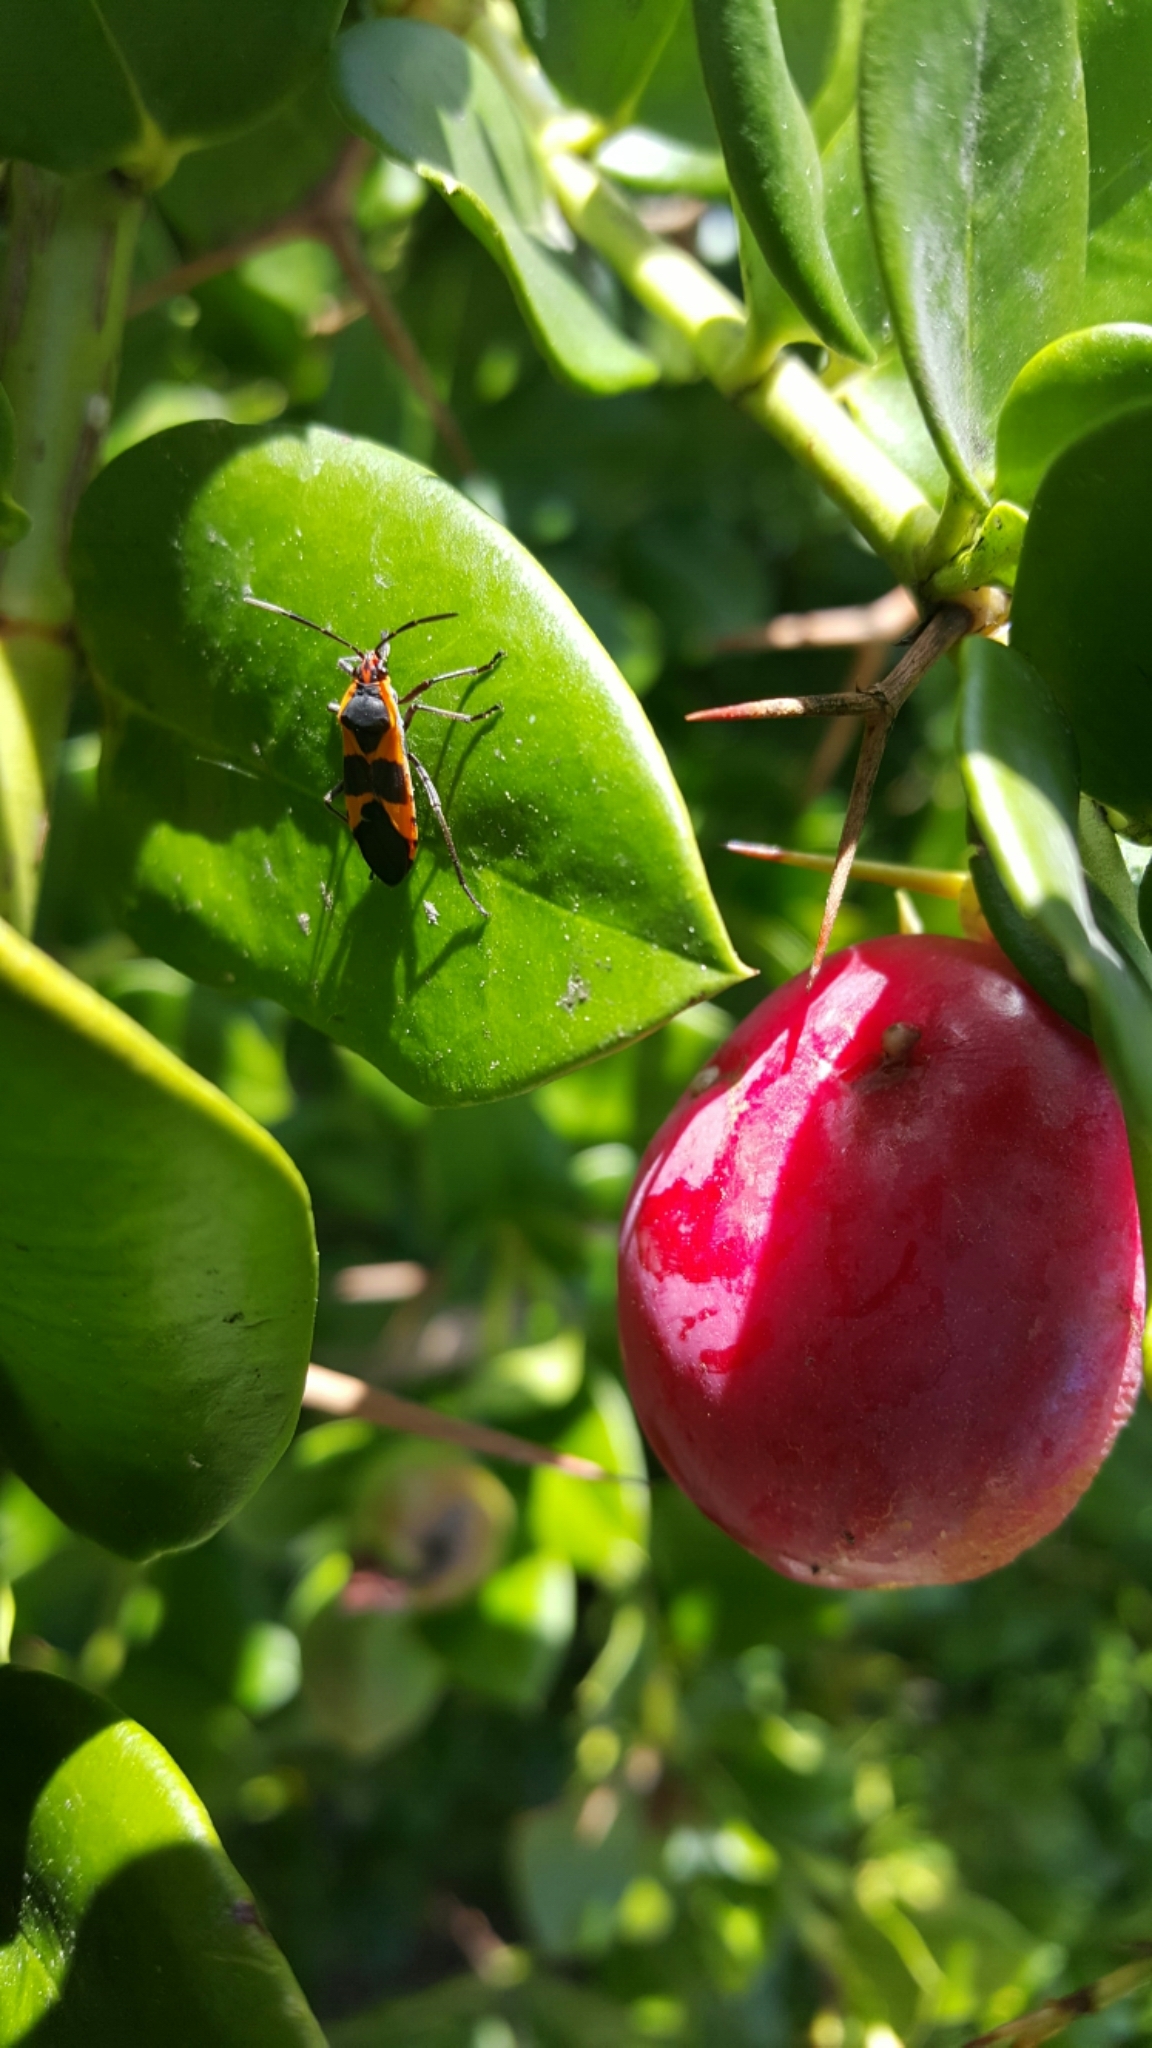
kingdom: Animalia
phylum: Arthropoda
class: Insecta
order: Hemiptera
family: Lygaeidae
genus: Oncopeltus
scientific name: Oncopeltus fasciatus
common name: Large milkweed bug
